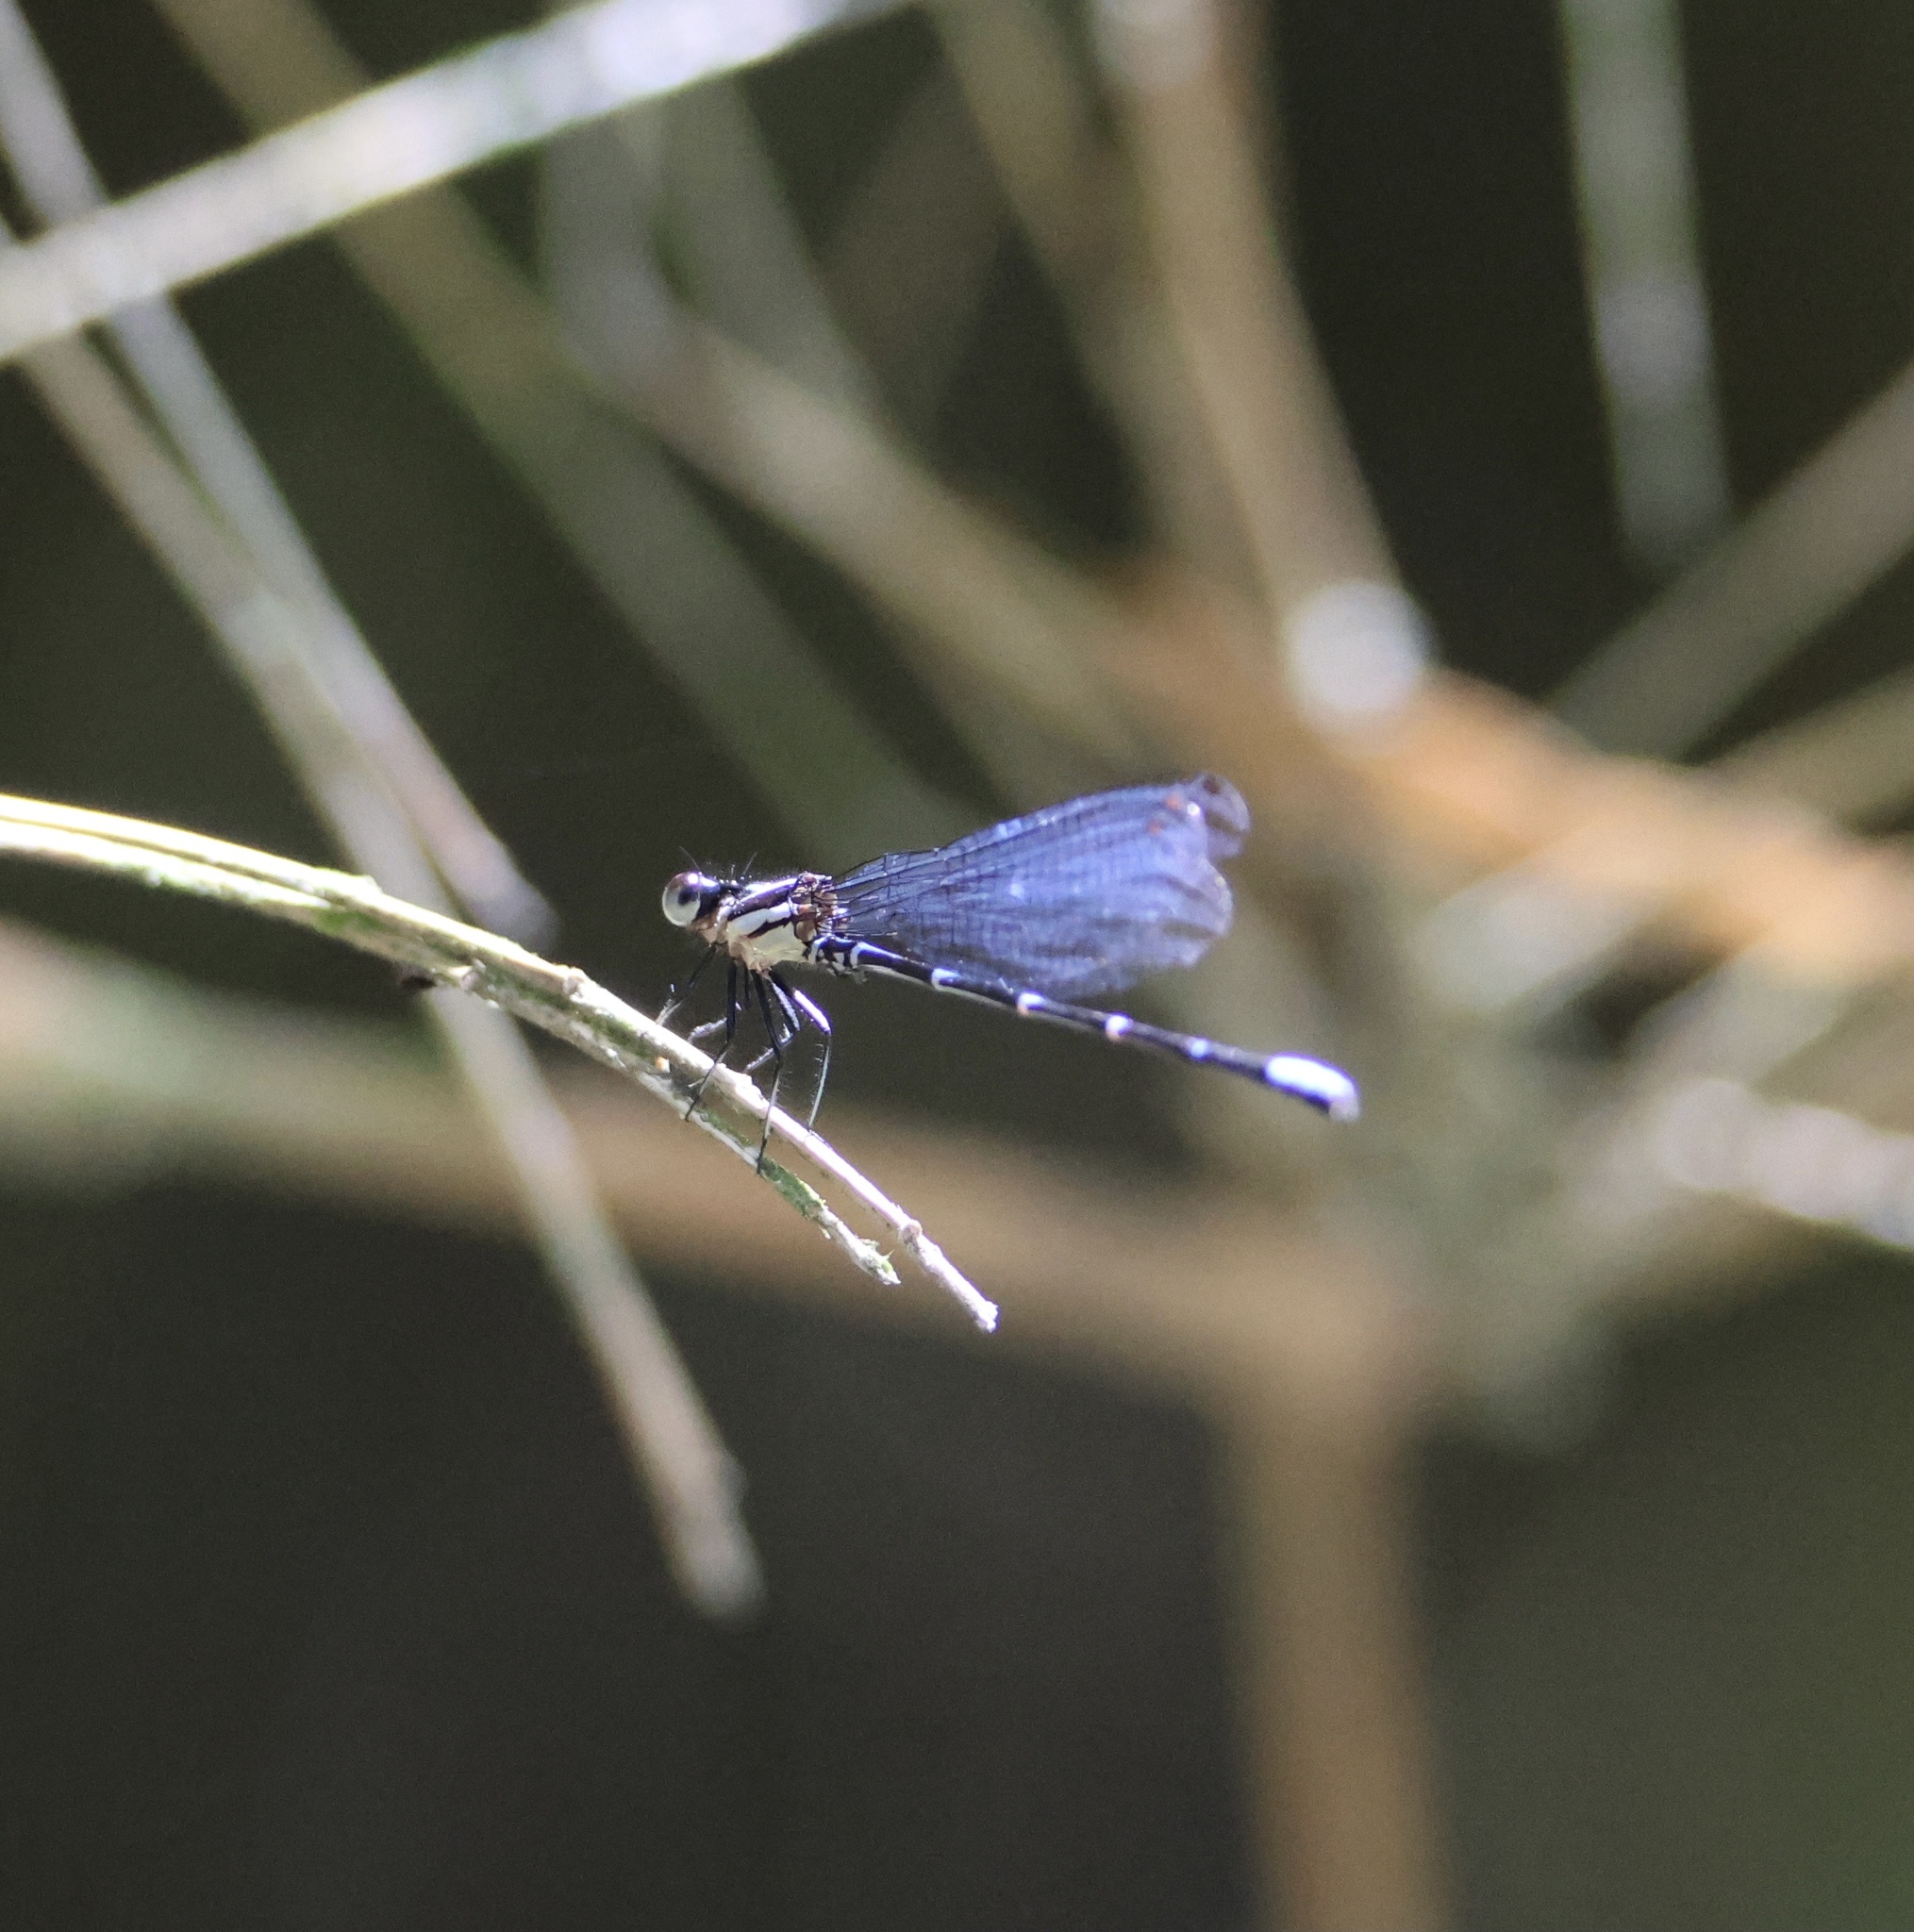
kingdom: Animalia
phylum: Arthropoda
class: Insecta
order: Odonata
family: Coenagrionidae
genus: Argia
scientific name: Argia oculata
